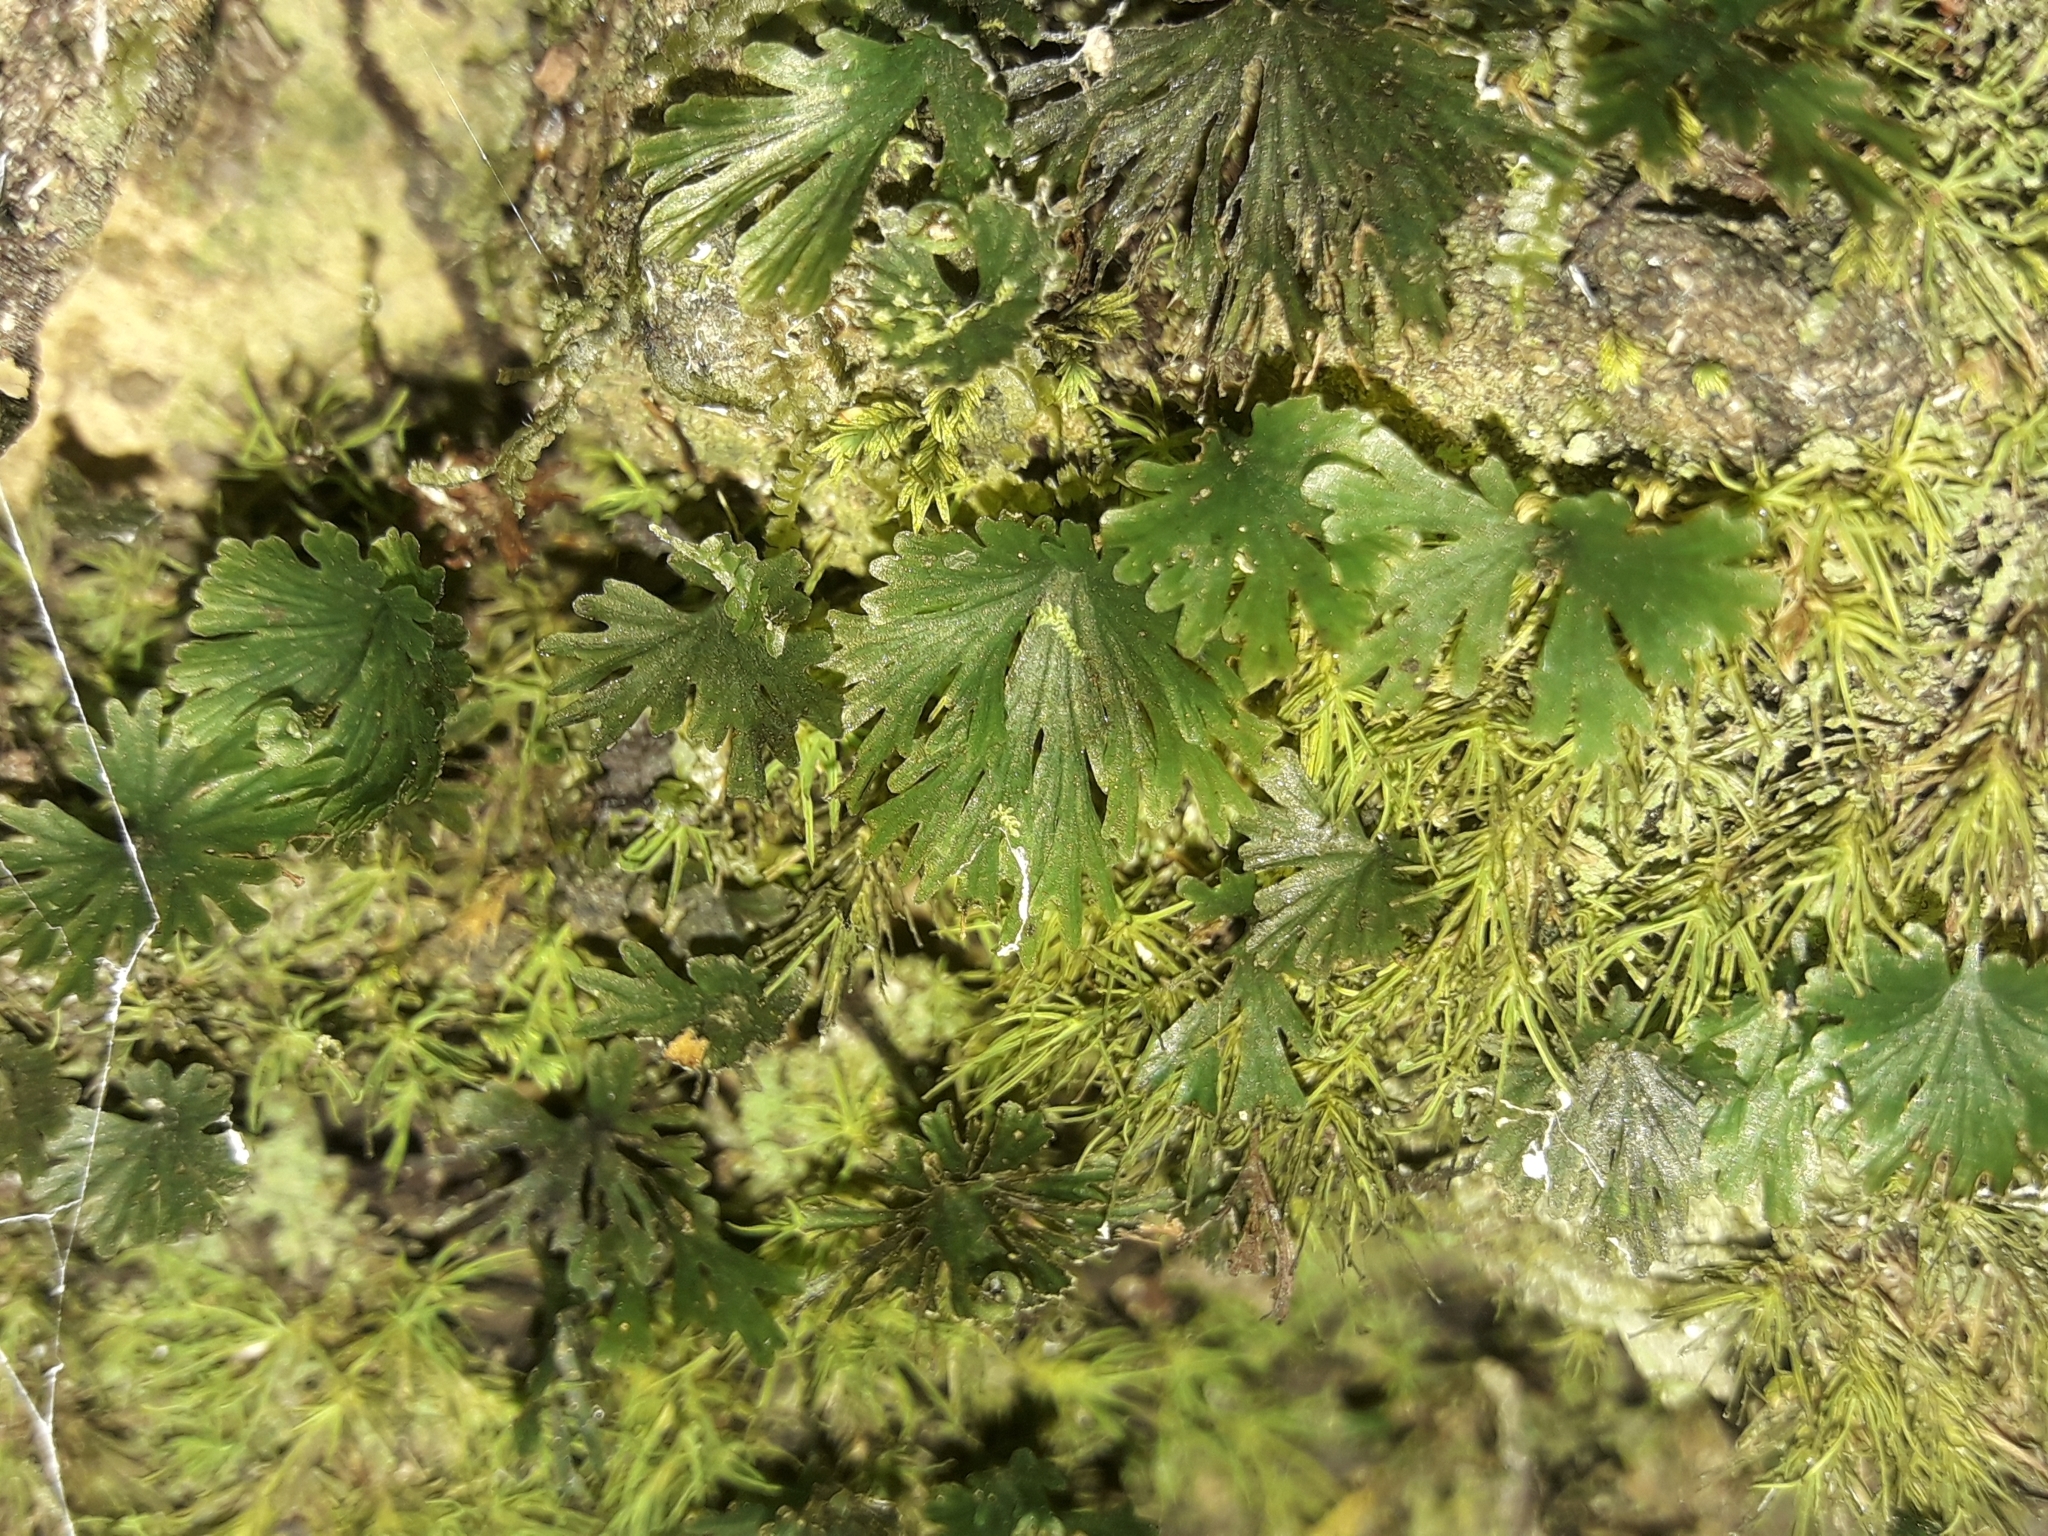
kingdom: Plantae
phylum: Tracheophyta
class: Polypodiopsida
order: Hymenophyllales
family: Hymenophyllaceae
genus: Crepidomanes
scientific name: Crepidomanes parvulum
